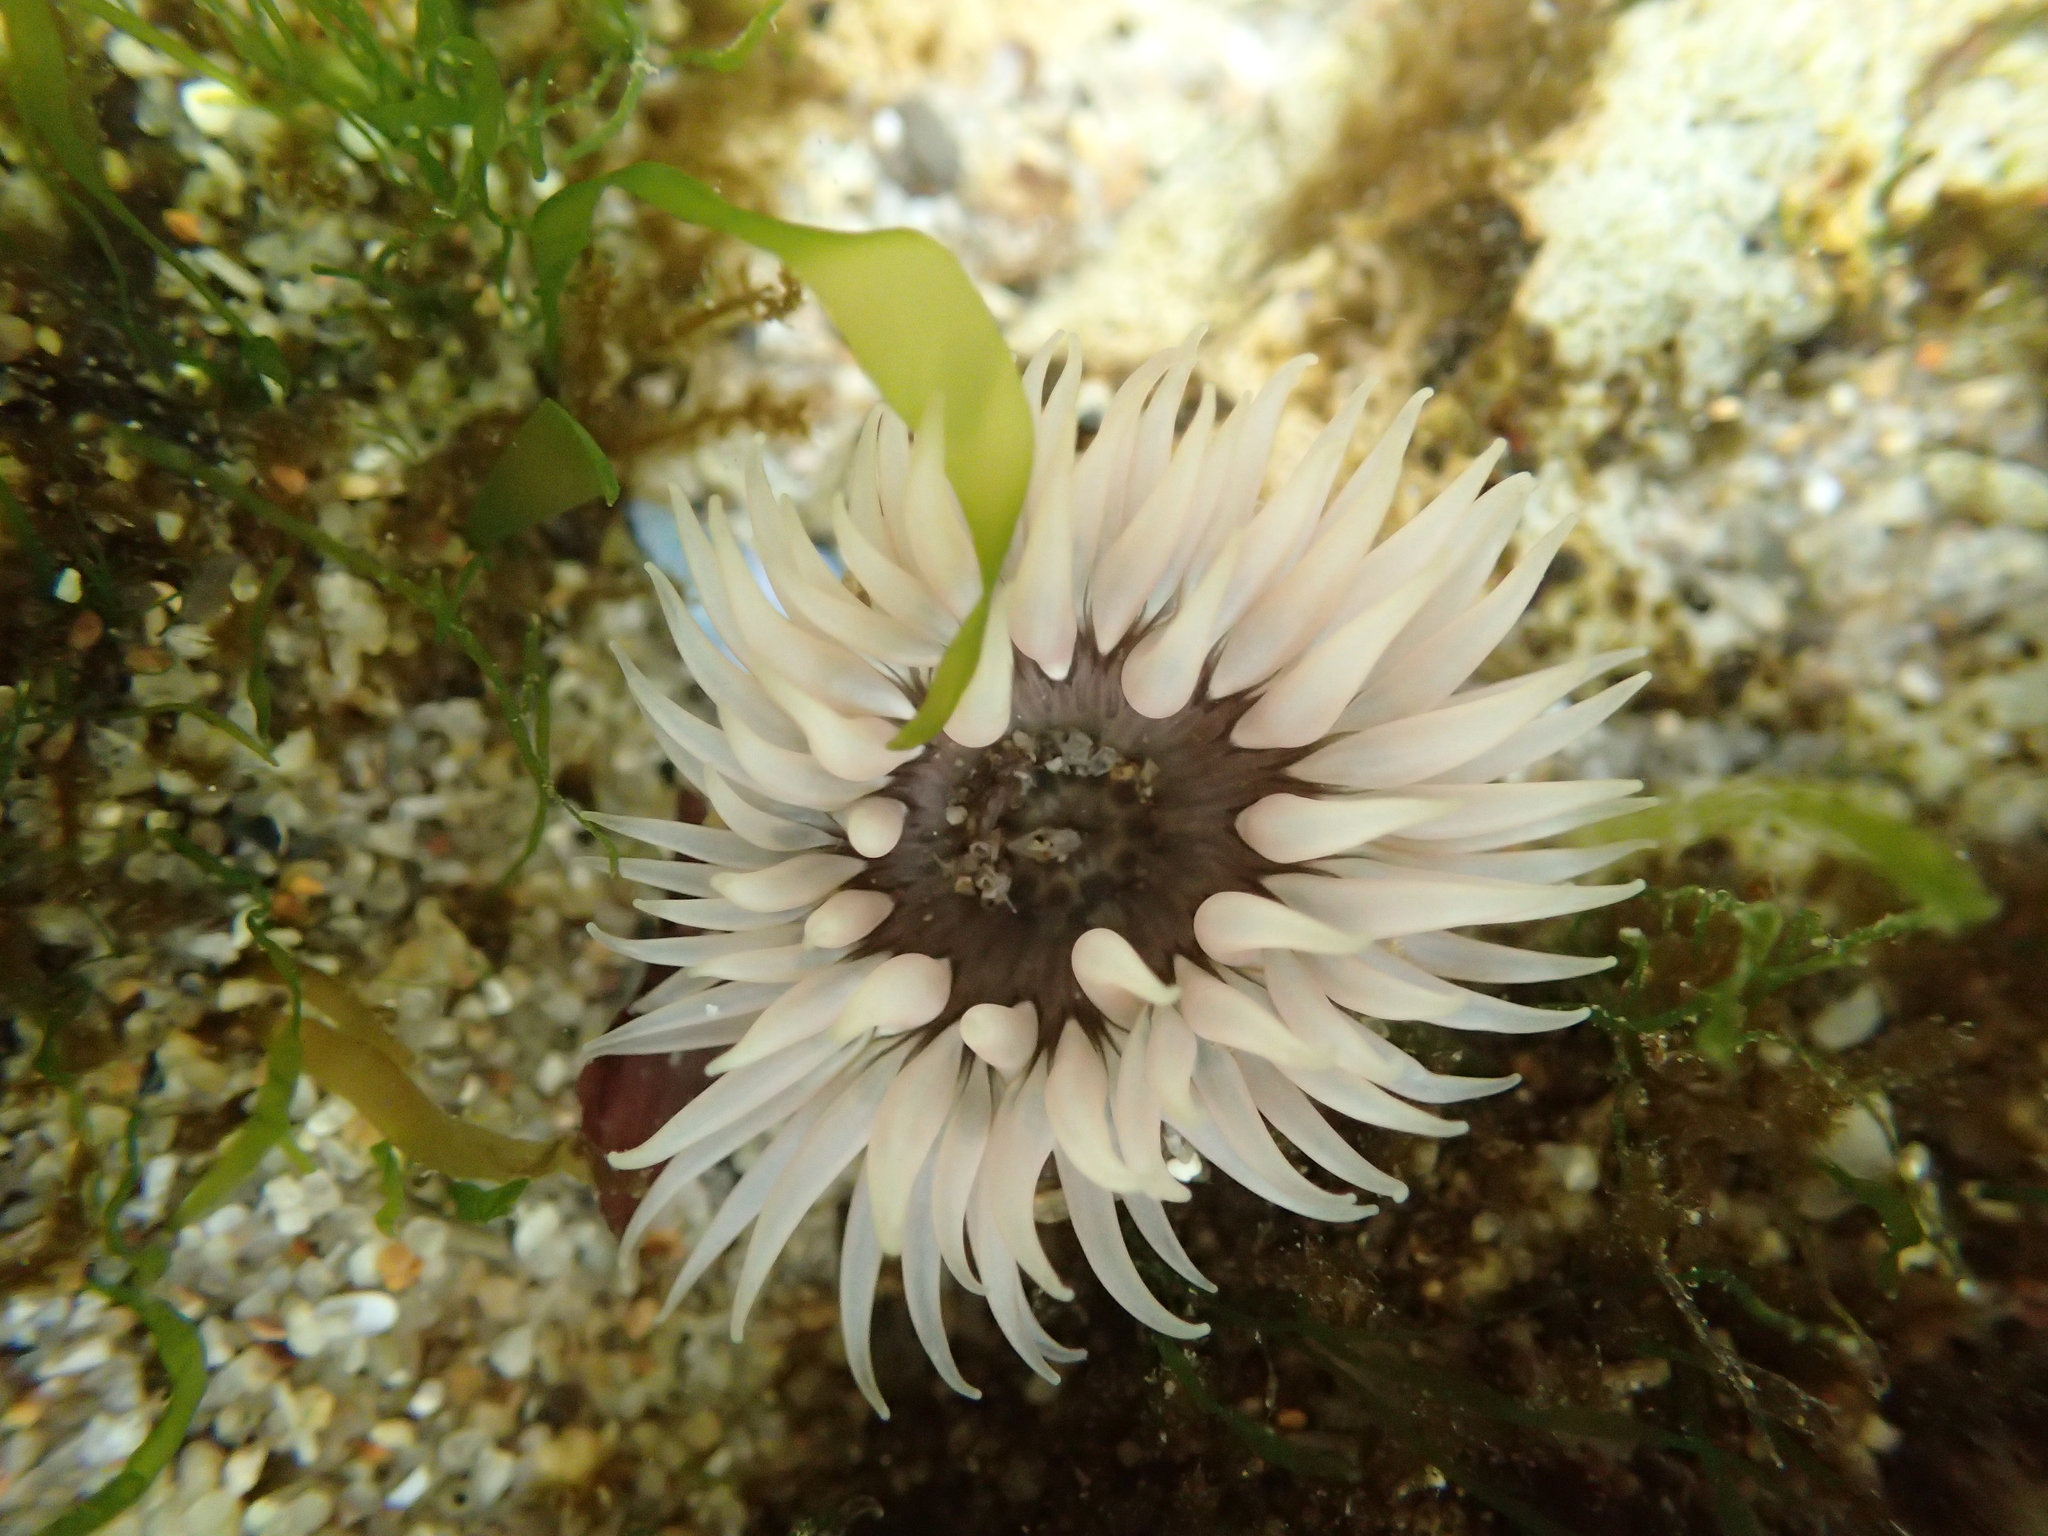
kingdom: Animalia
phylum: Cnidaria
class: Anthozoa
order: Actiniaria
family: Actiniidae
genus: Anthopleura
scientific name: Anthopleura artemisia
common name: Buried sea anemone
